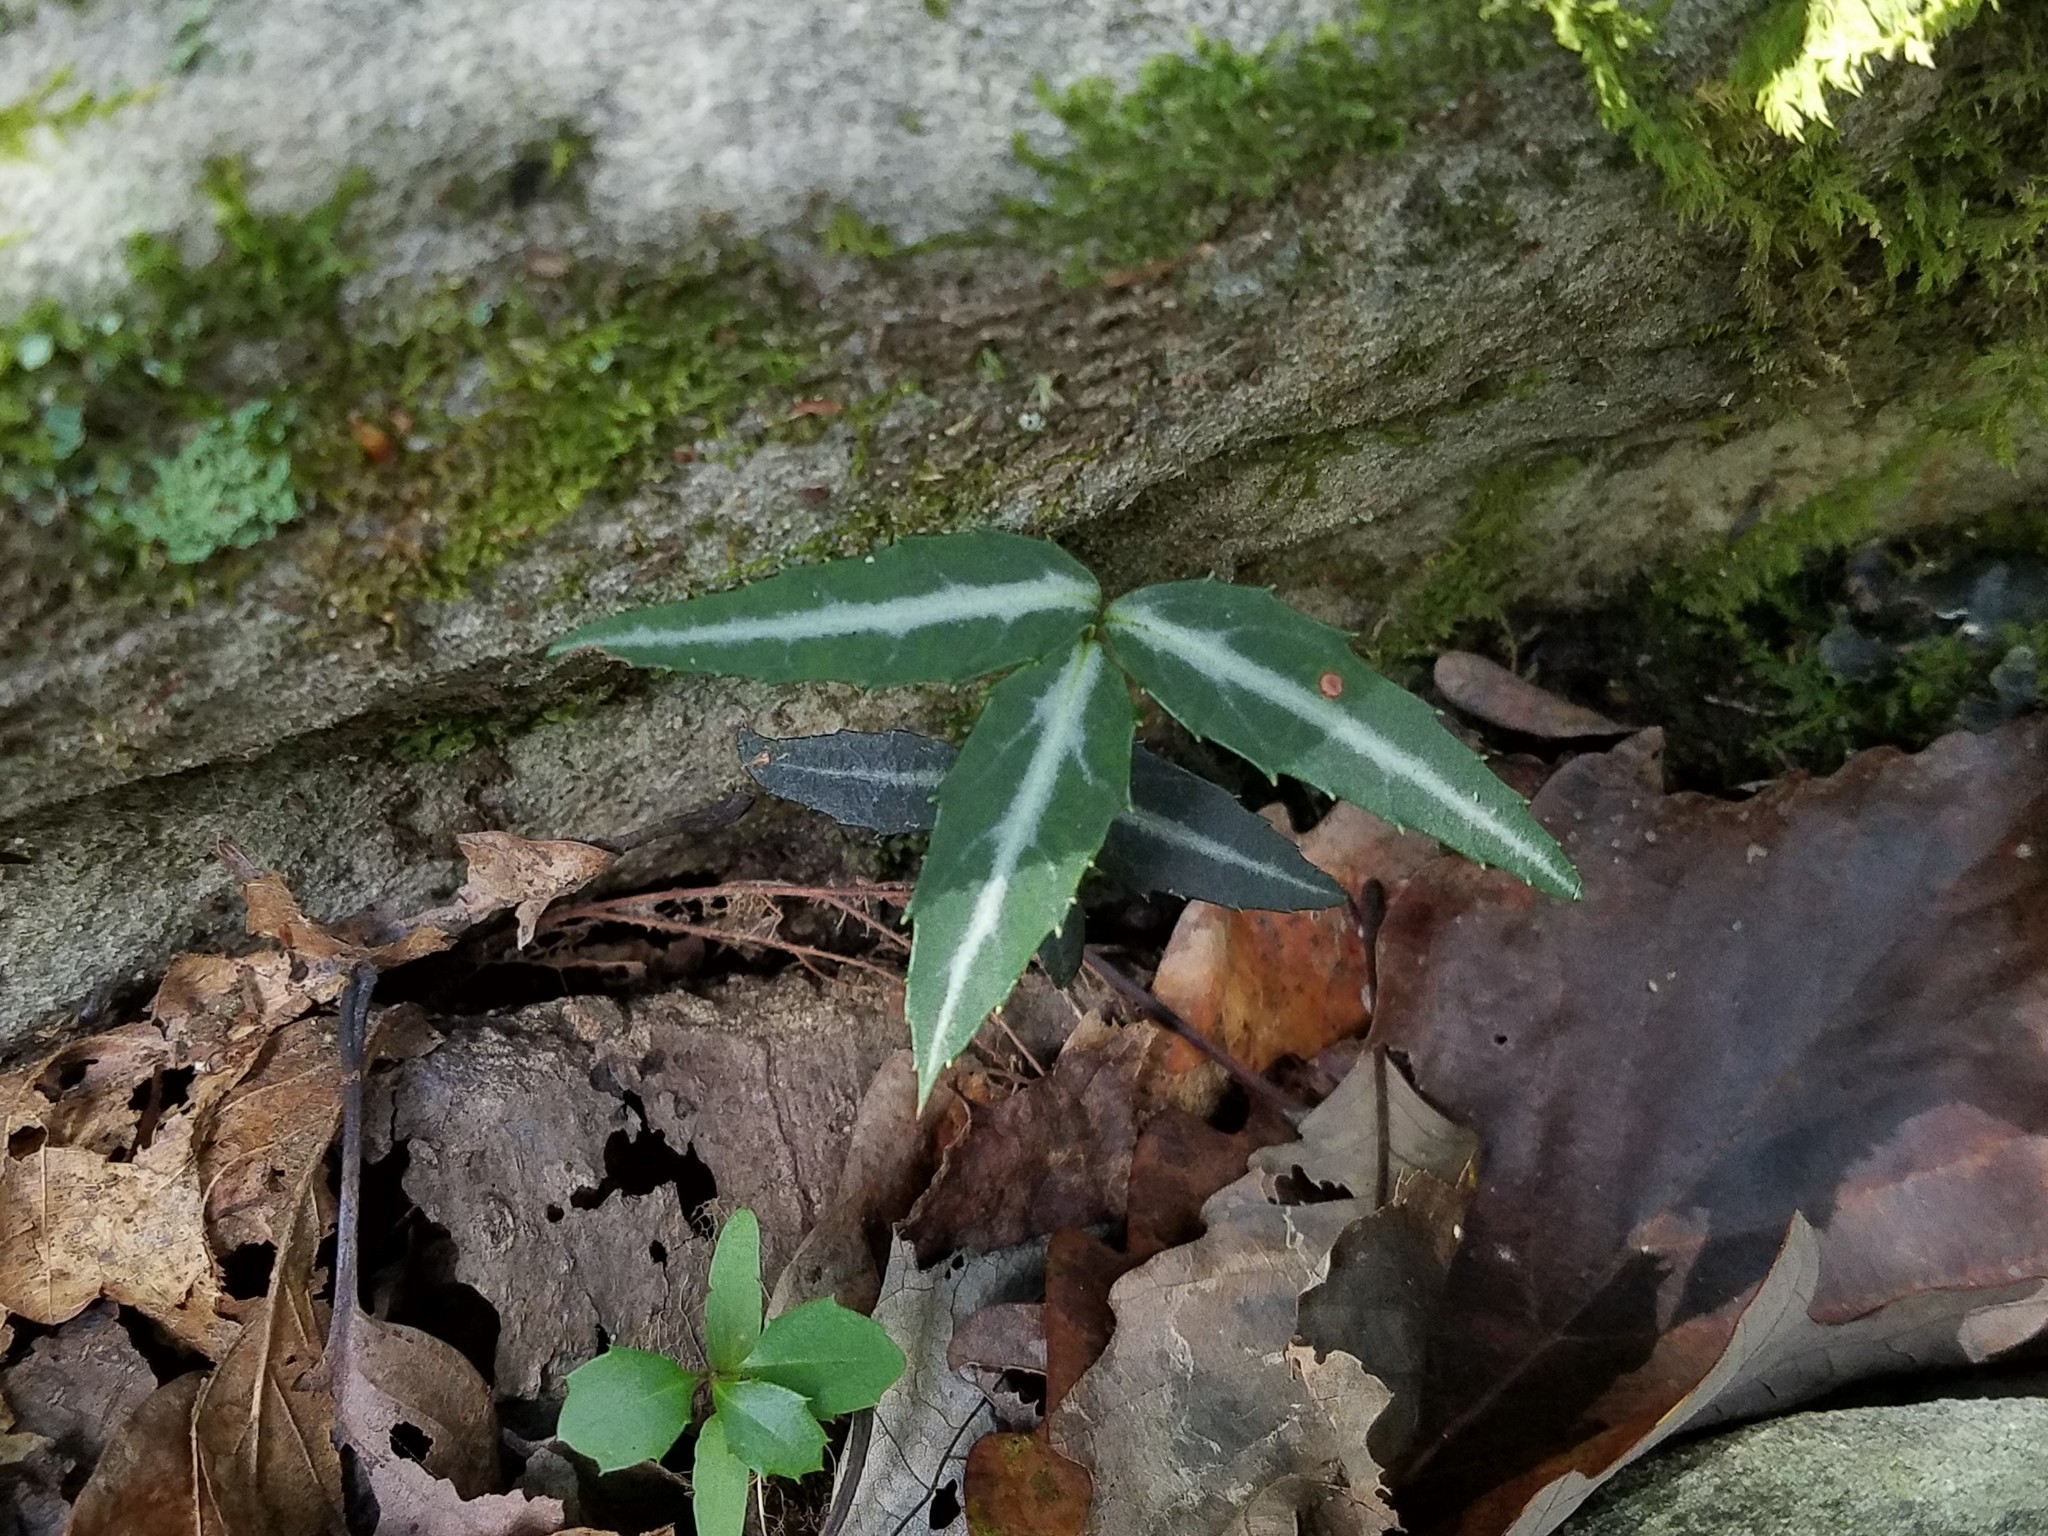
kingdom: Plantae
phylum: Tracheophyta
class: Magnoliopsida
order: Ericales
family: Ericaceae
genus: Chimaphila
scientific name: Chimaphila maculata
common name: Spotted pipsissewa
